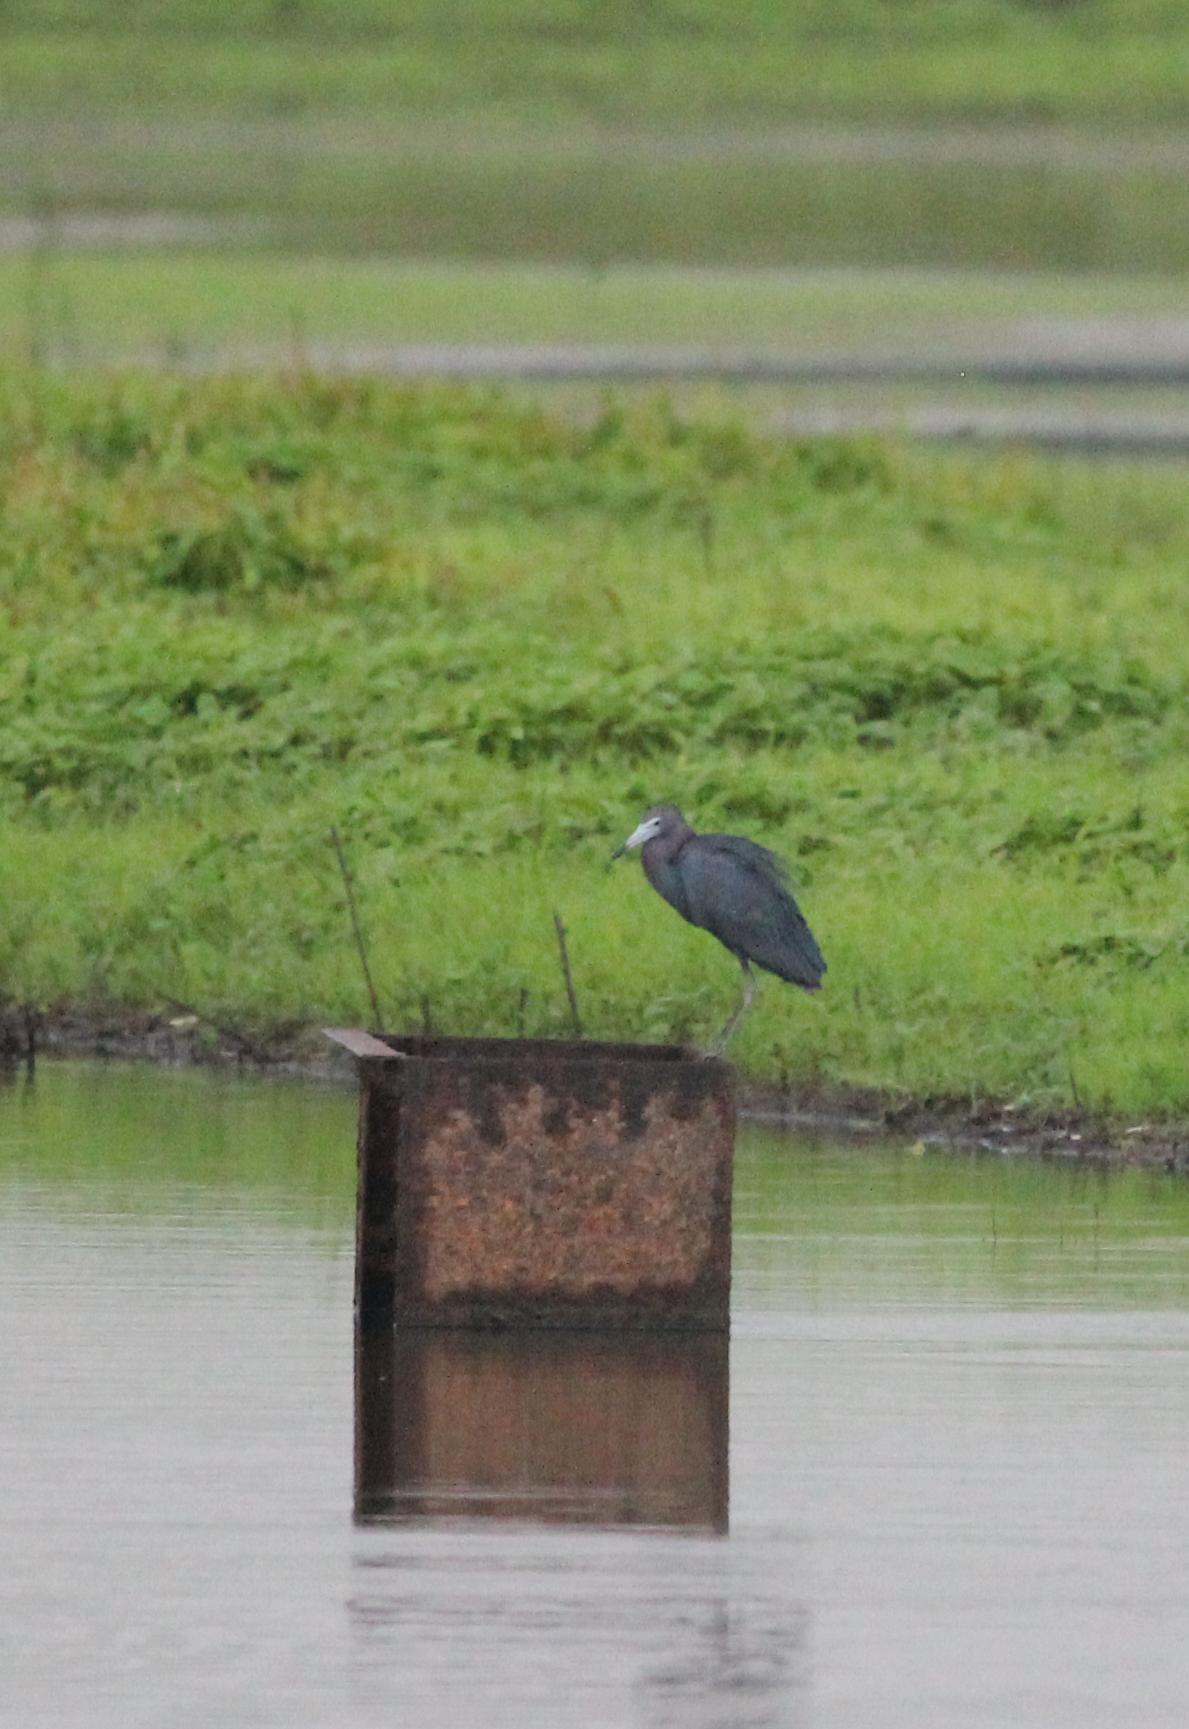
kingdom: Animalia
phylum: Chordata
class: Aves
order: Pelecaniformes
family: Ardeidae
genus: Egretta
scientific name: Egretta caerulea
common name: Little blue heron
